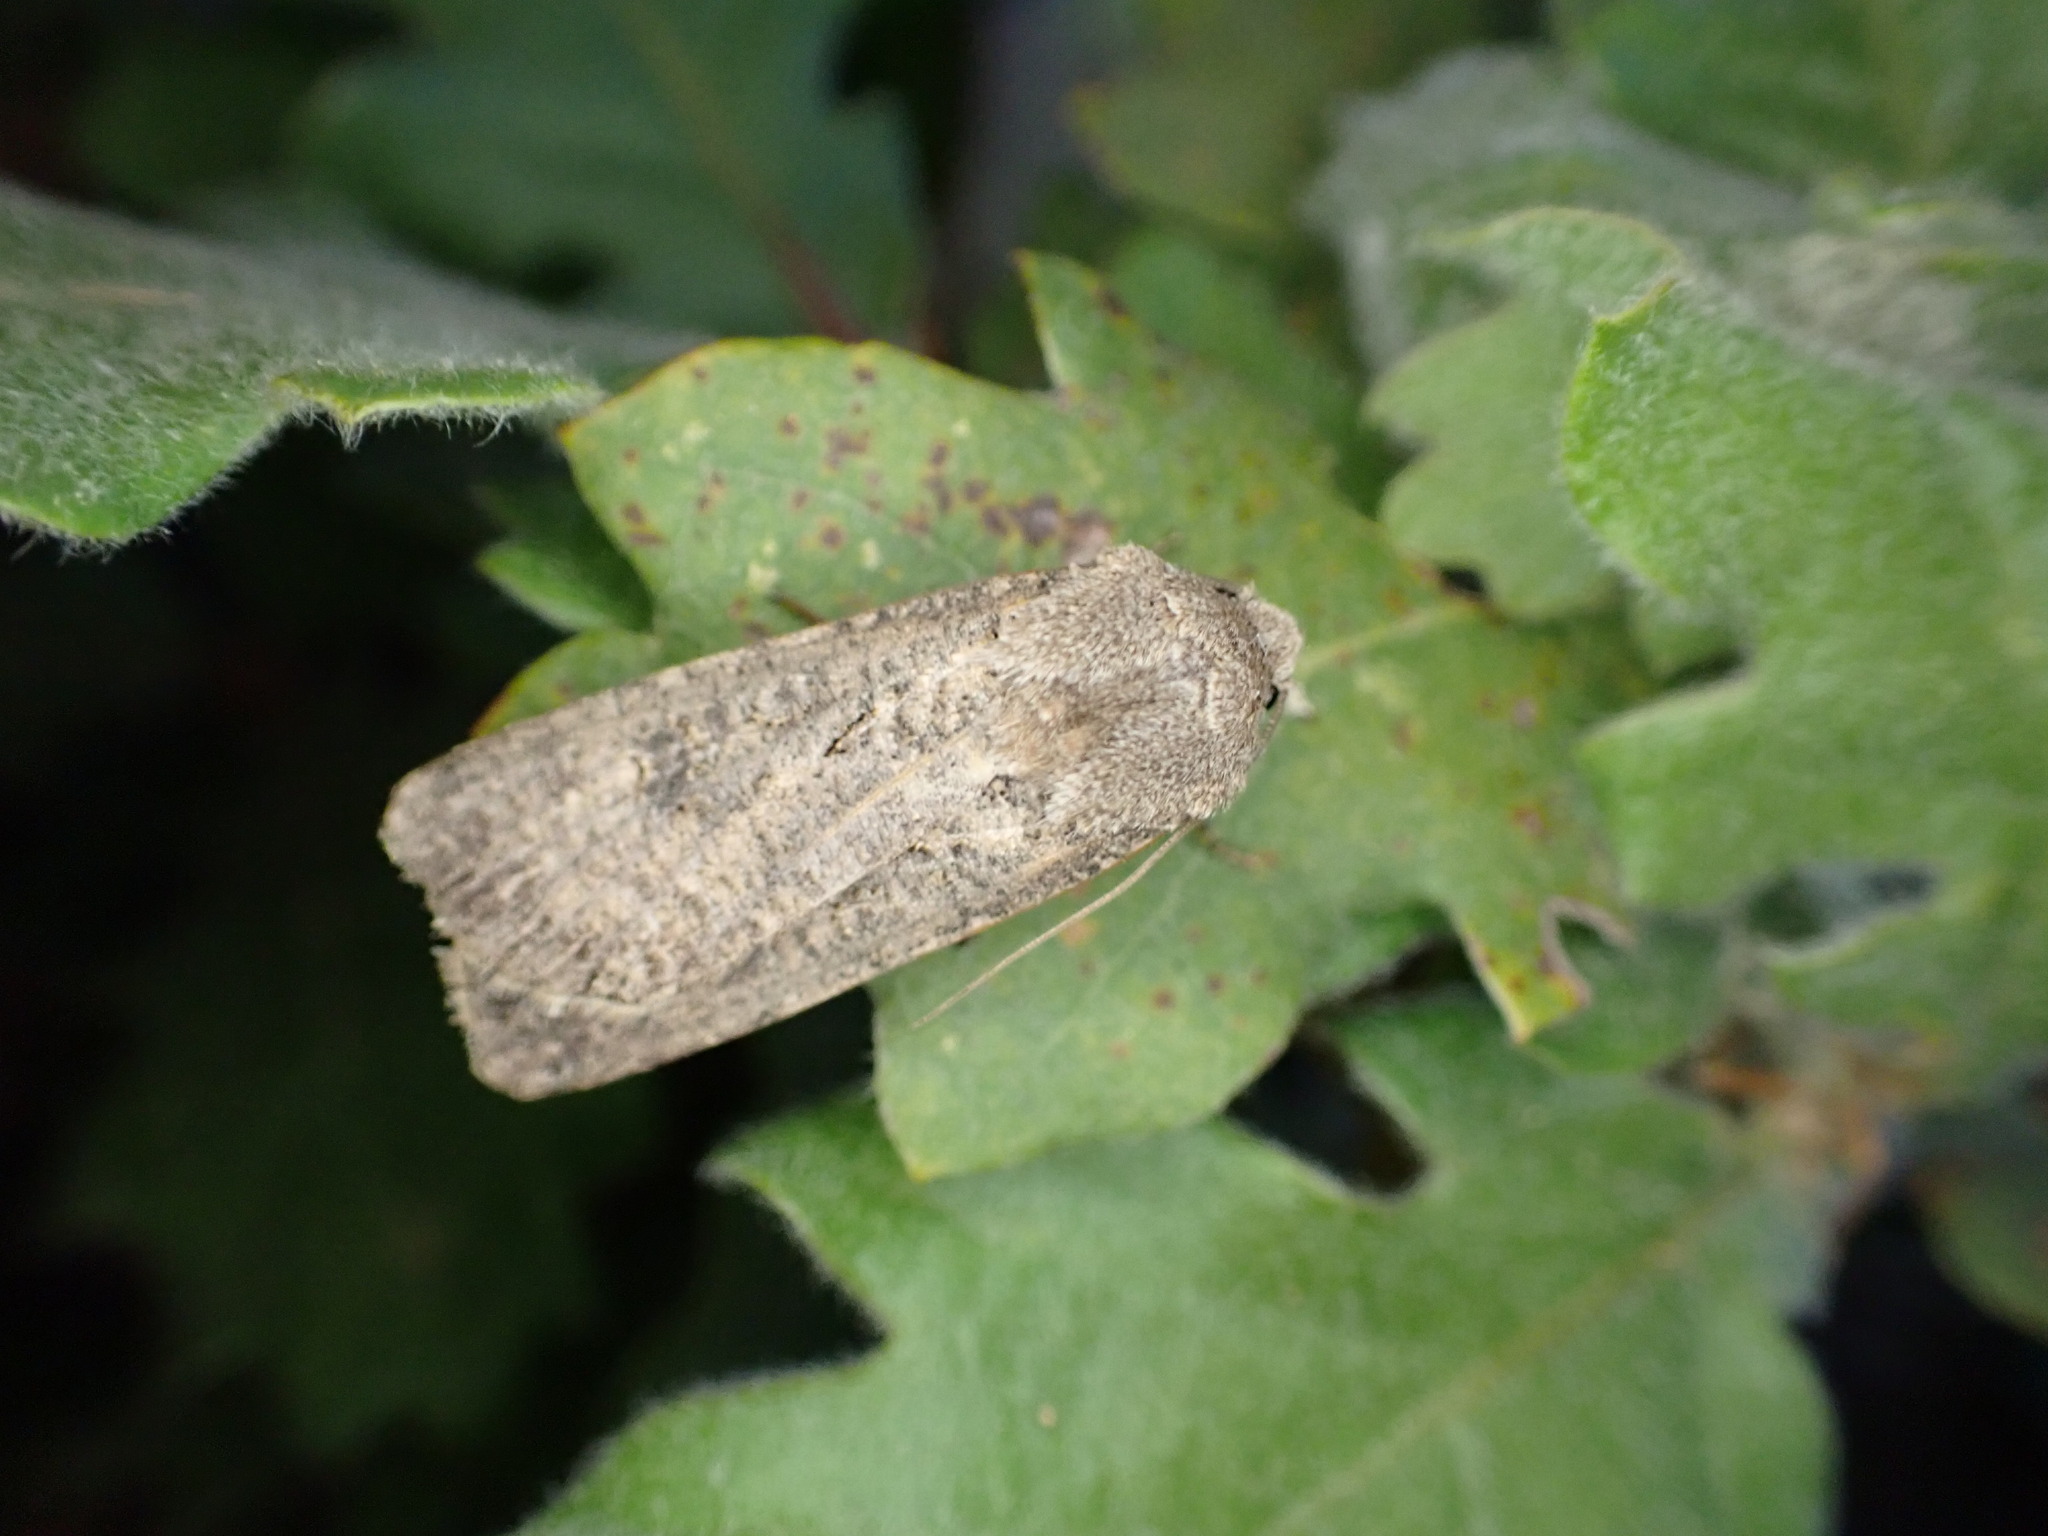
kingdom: Animalia
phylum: Arthropoda
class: Insecta
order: Lepidoptera
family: Noctuidae
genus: Agrotis
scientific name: Agrotis segetum
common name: Turnip moth
